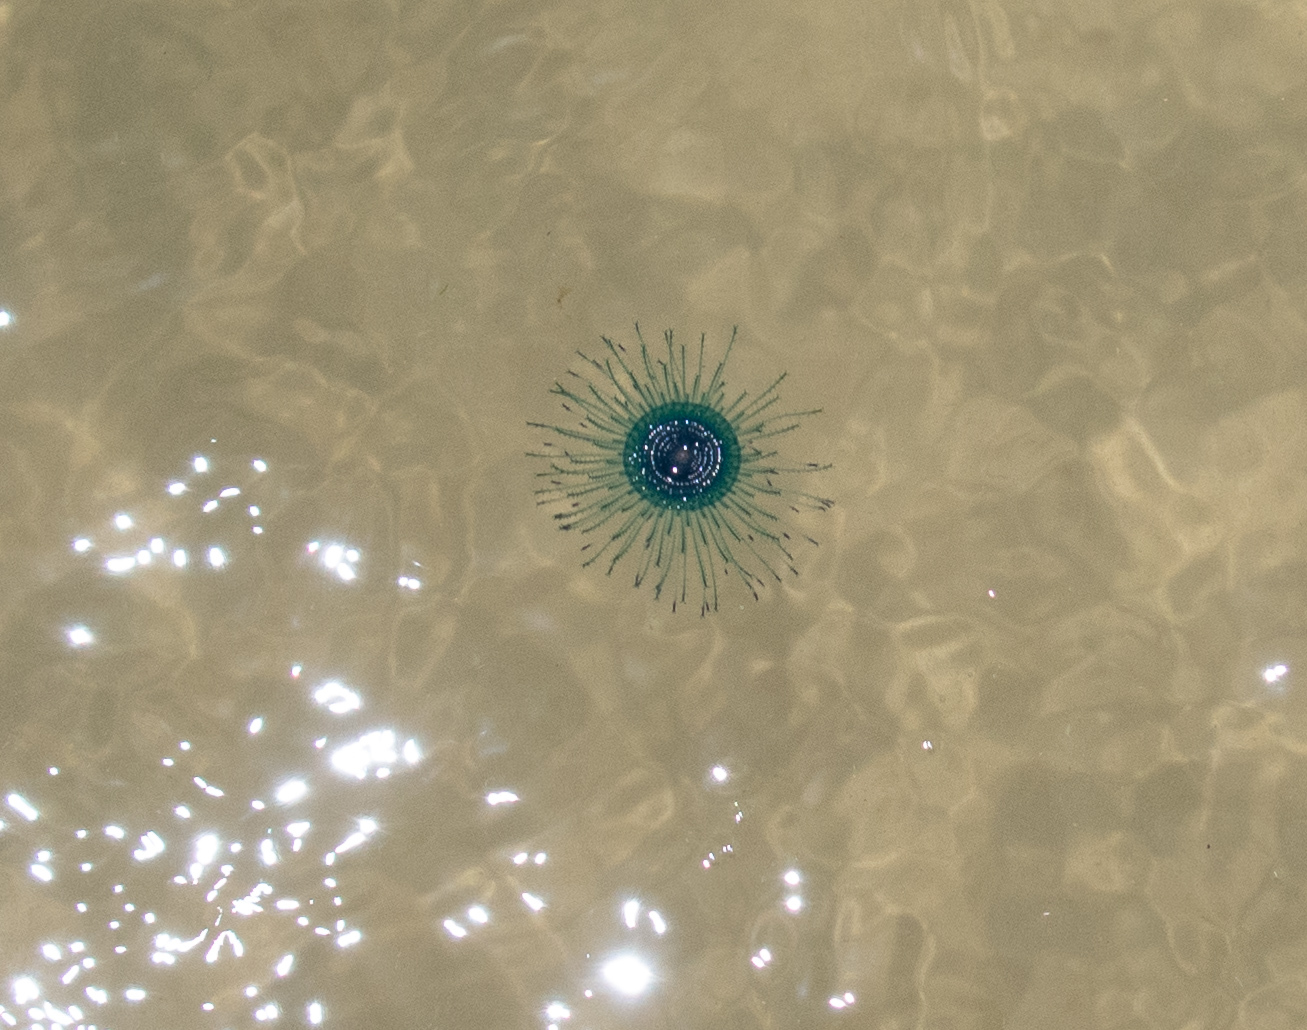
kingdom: Animalia
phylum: Cnidaria
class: Hydrozoa
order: Anthoathecata
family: Porpitidae
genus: Porpita
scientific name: Porpita porpita
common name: Blue button
